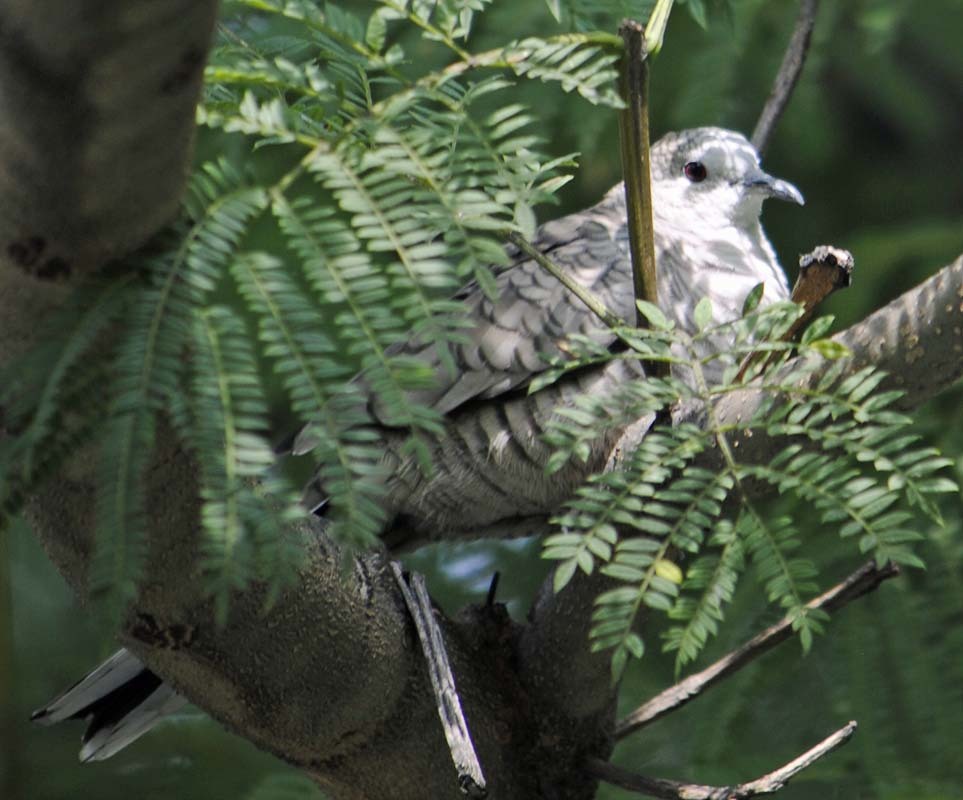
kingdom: Animalia
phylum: Chordata
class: Aves
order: Columbiformes
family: Columbidae
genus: Columbina
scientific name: Columbina inca
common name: Inca dove
